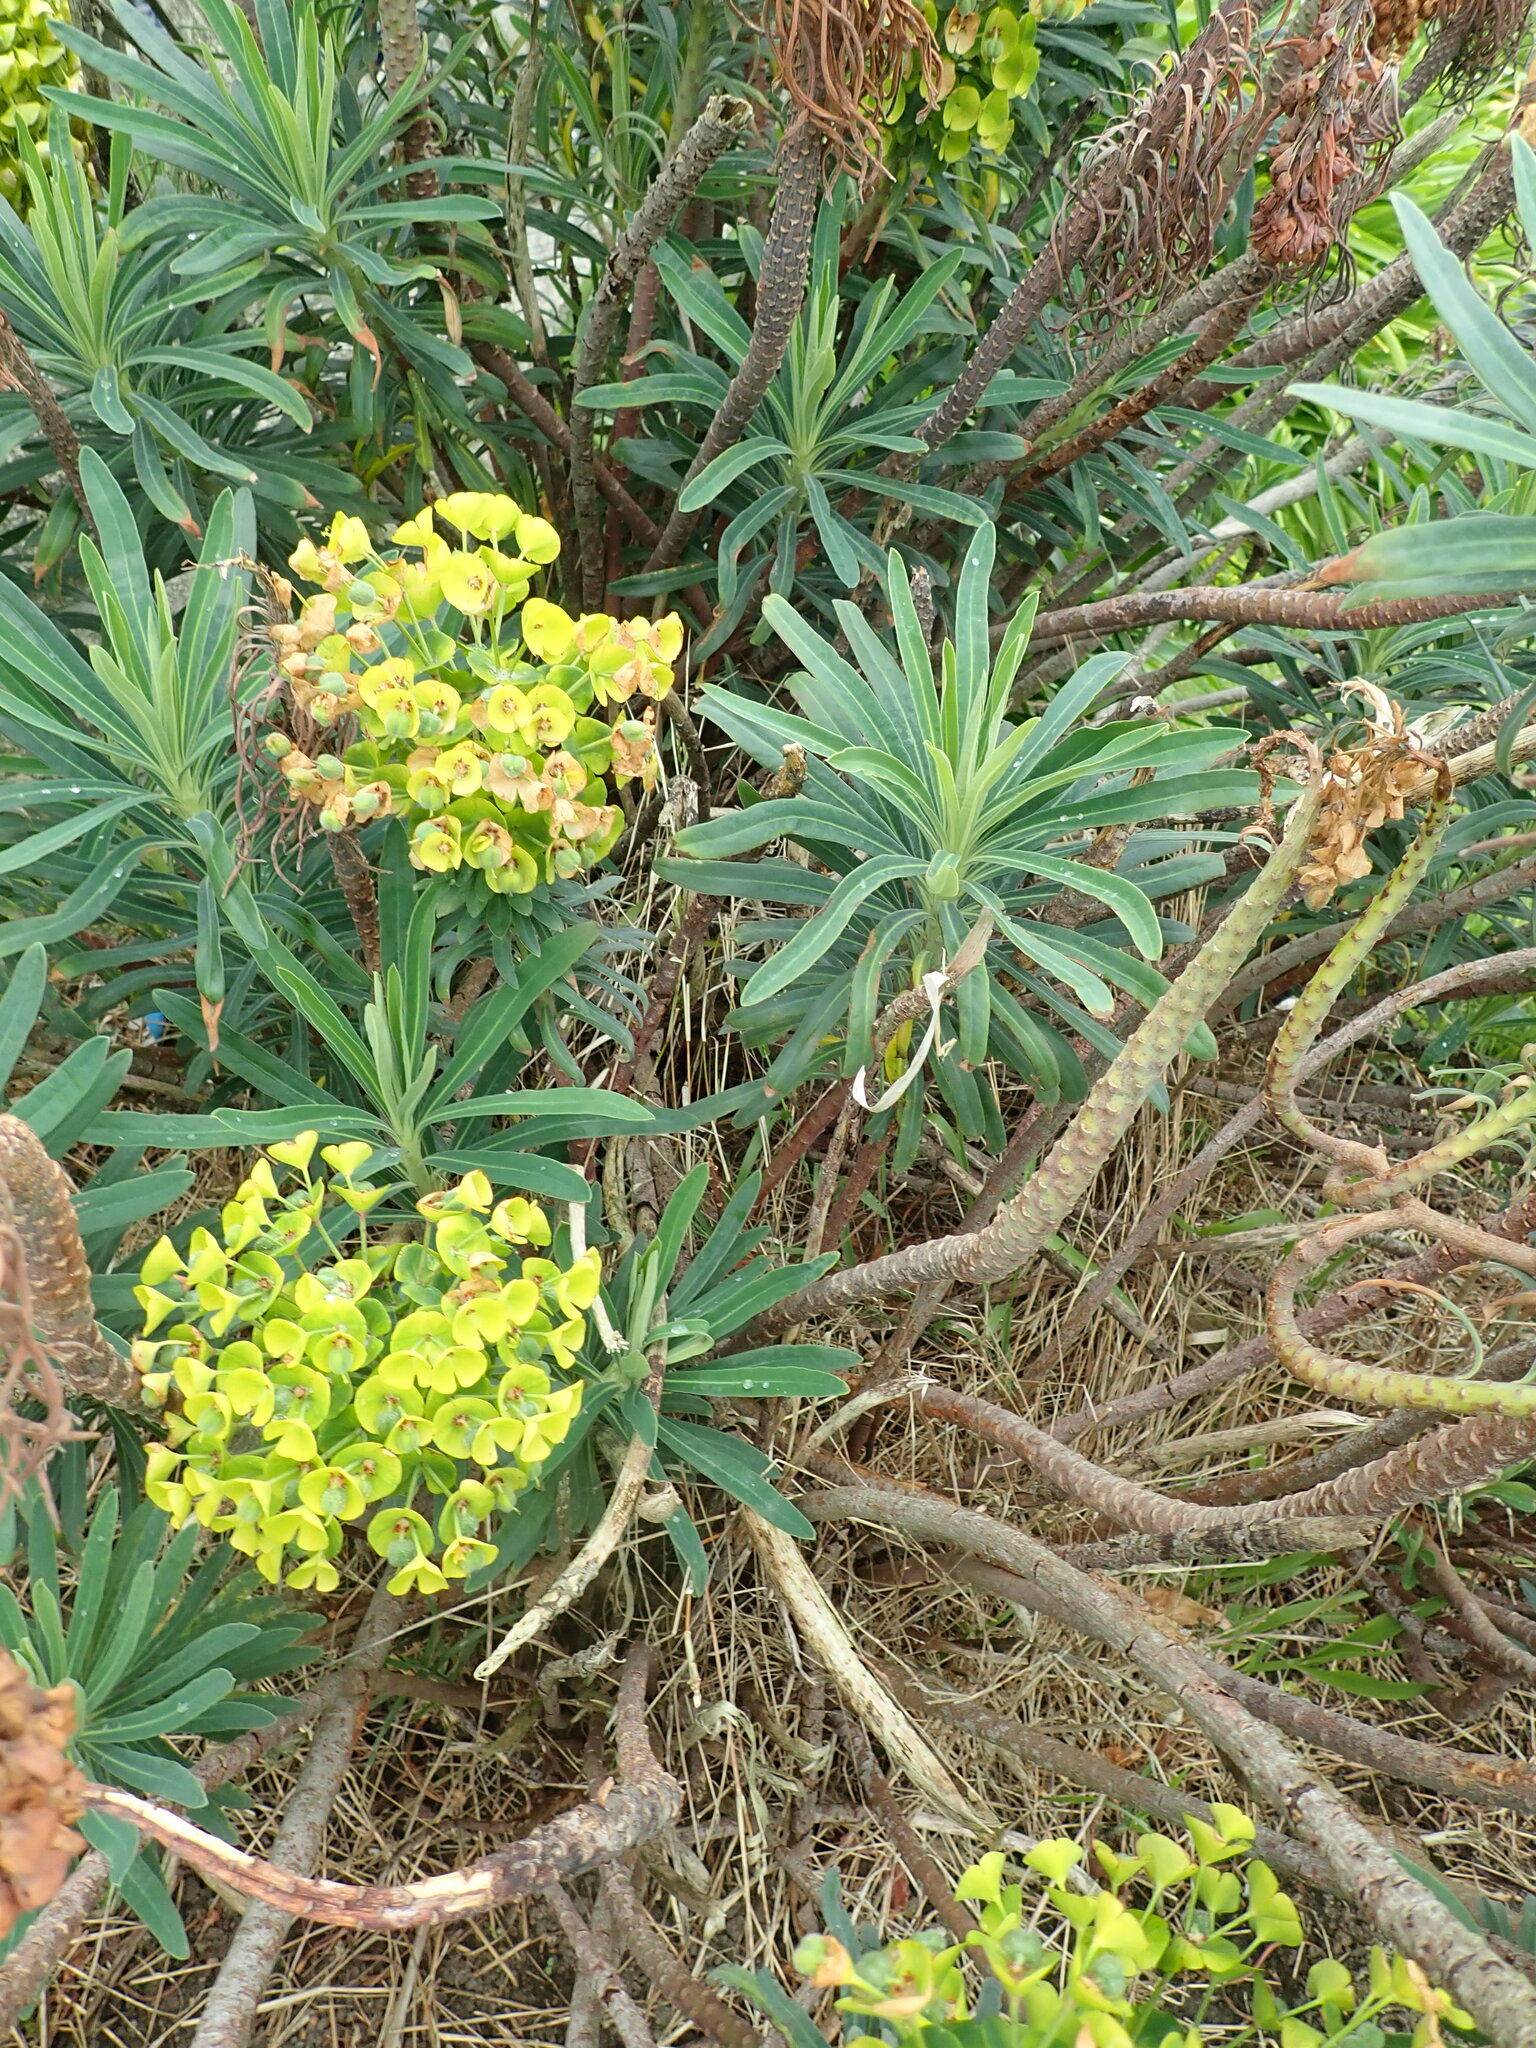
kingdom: Plantae
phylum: Tracheophyta
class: Magnoliopsida
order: Malpighiales
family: Euphorbiaceae
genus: Euphorbia
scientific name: Euphorbia characias
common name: Mediterranean spurge
